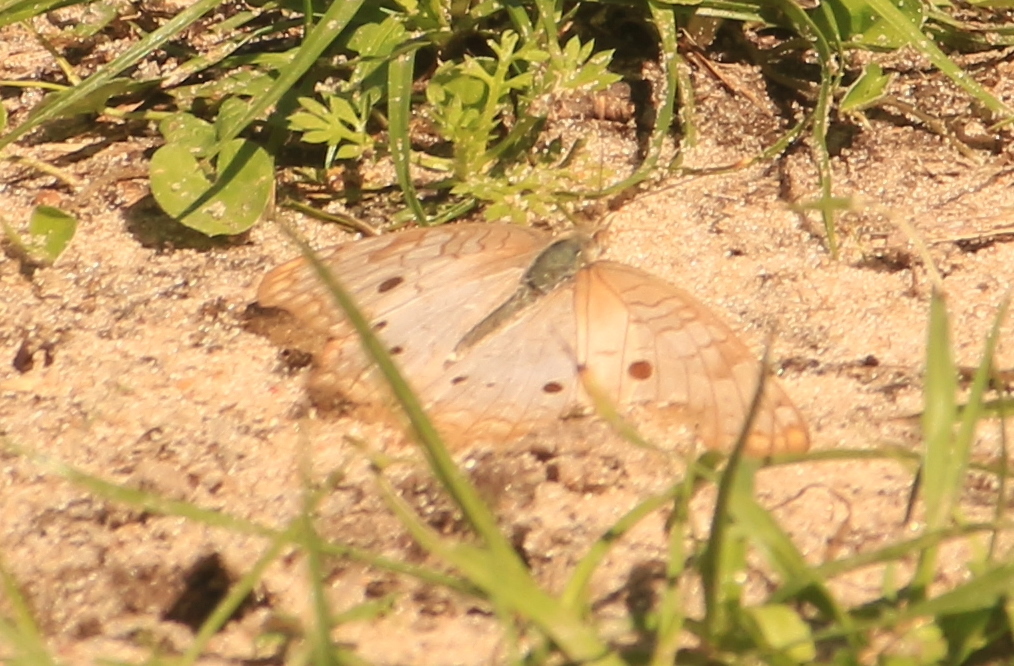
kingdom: Animalia
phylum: Arthropoda
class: Insecta
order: Lepidoptera
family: Nymphalidae
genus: Anartia
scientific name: Anartia jatrophae
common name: White peacock
